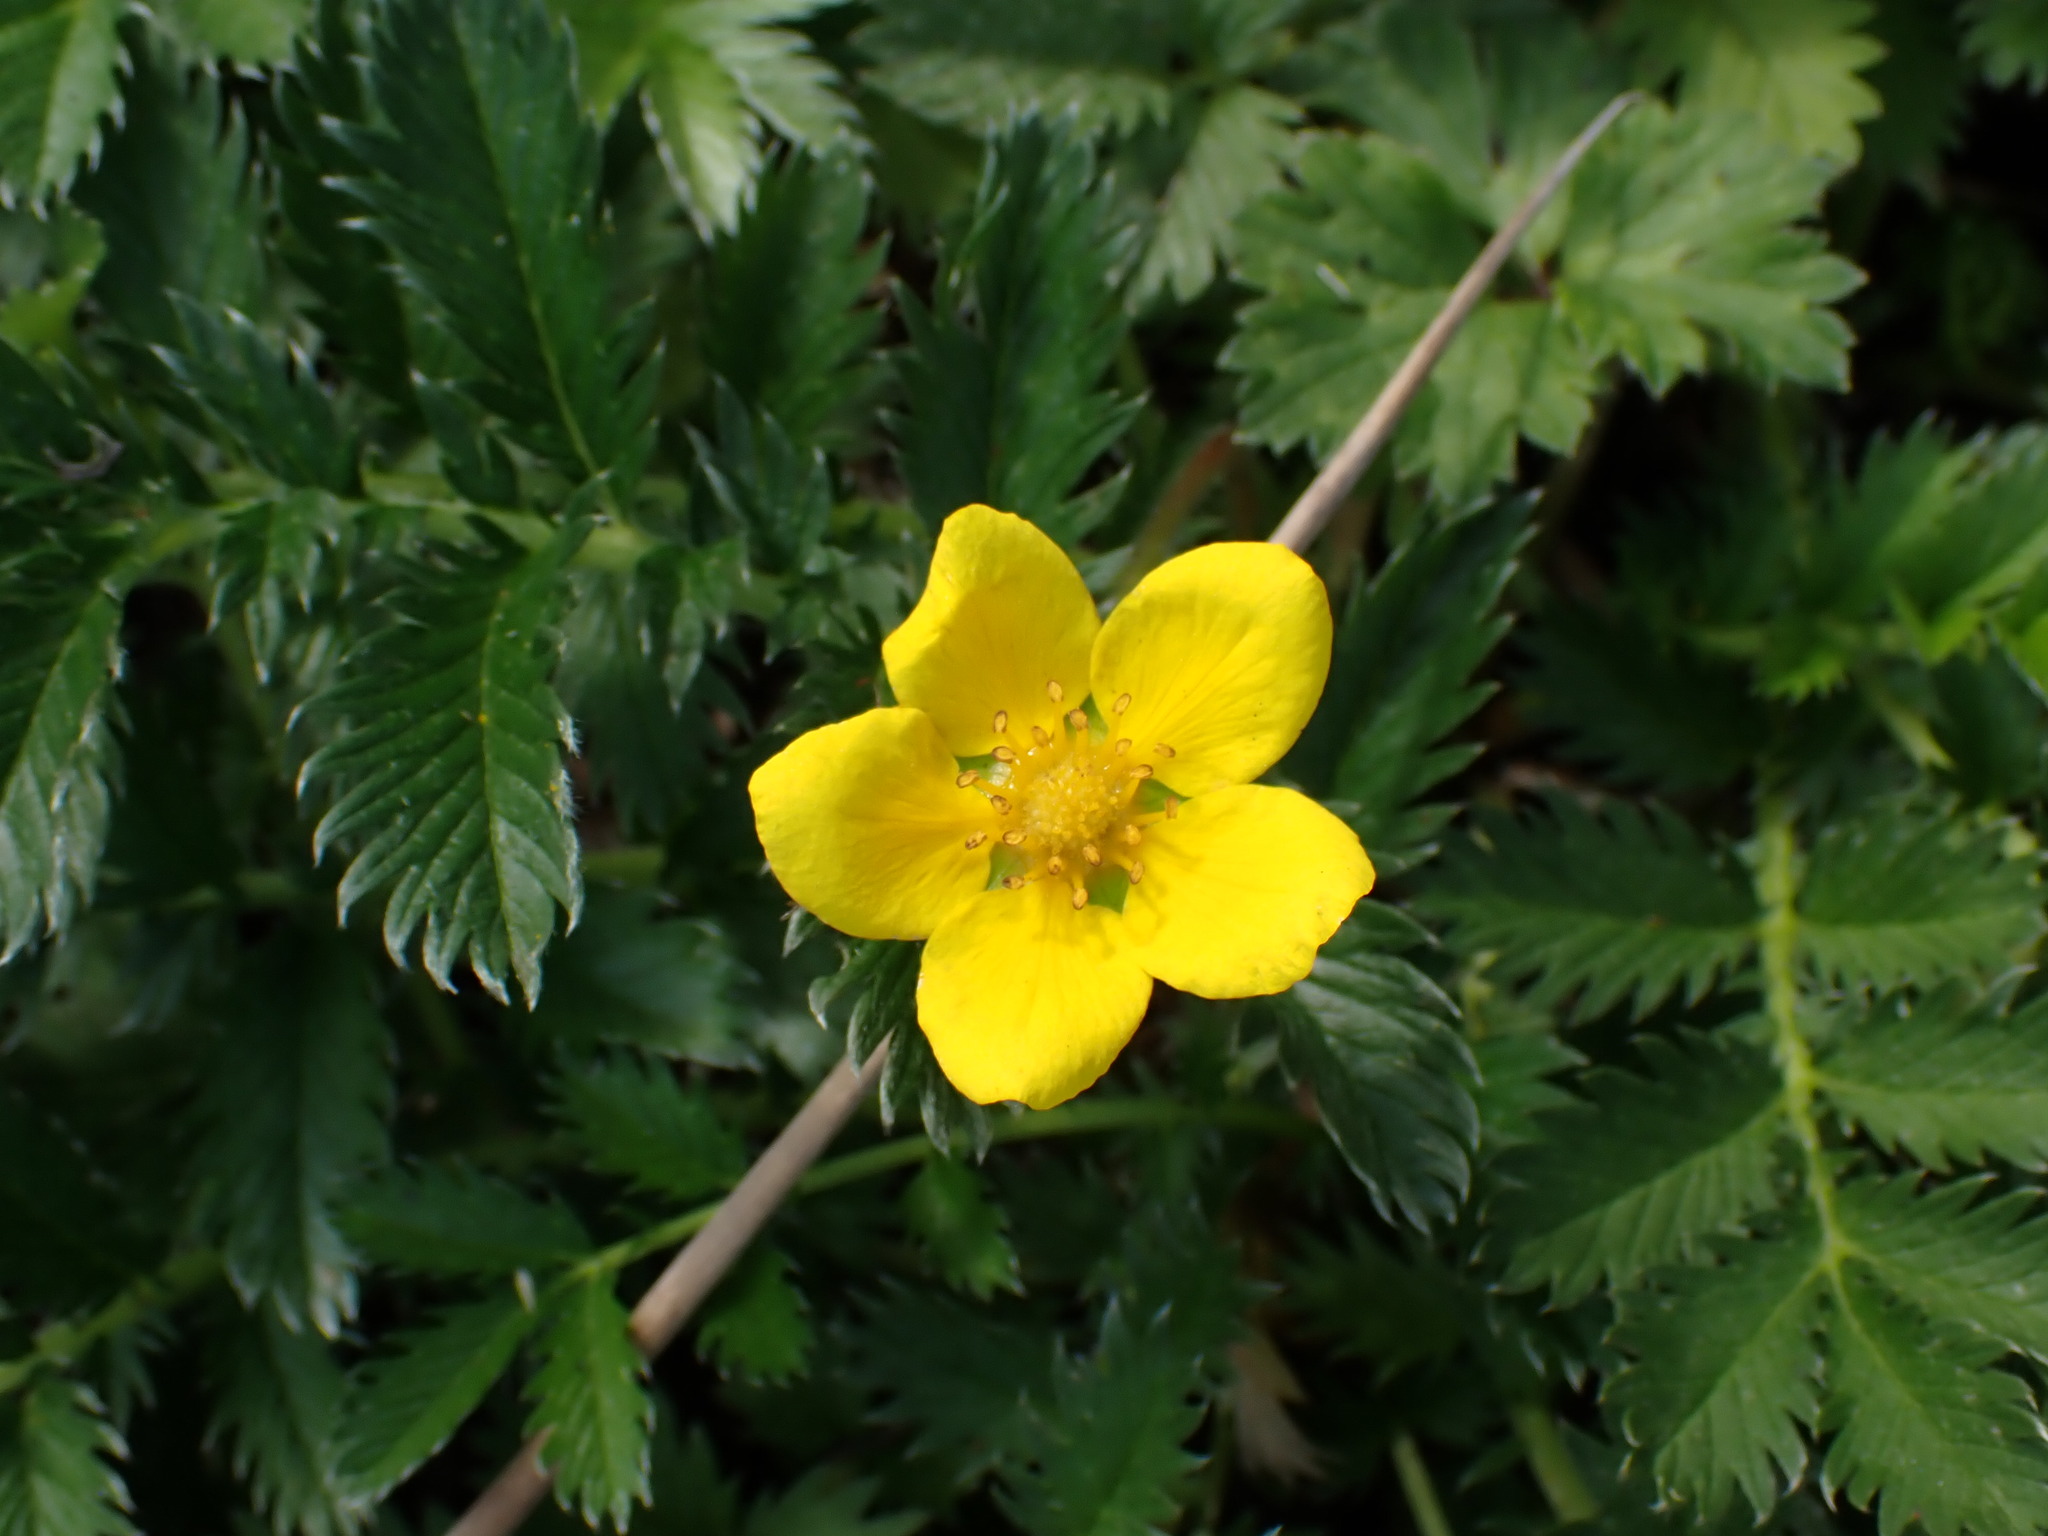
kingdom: Plantae
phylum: Tracheophyta
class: Magnoliopsida
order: Rosales
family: Rosaceae
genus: Argentina
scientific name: Argentina anserina
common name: Common silverweed
